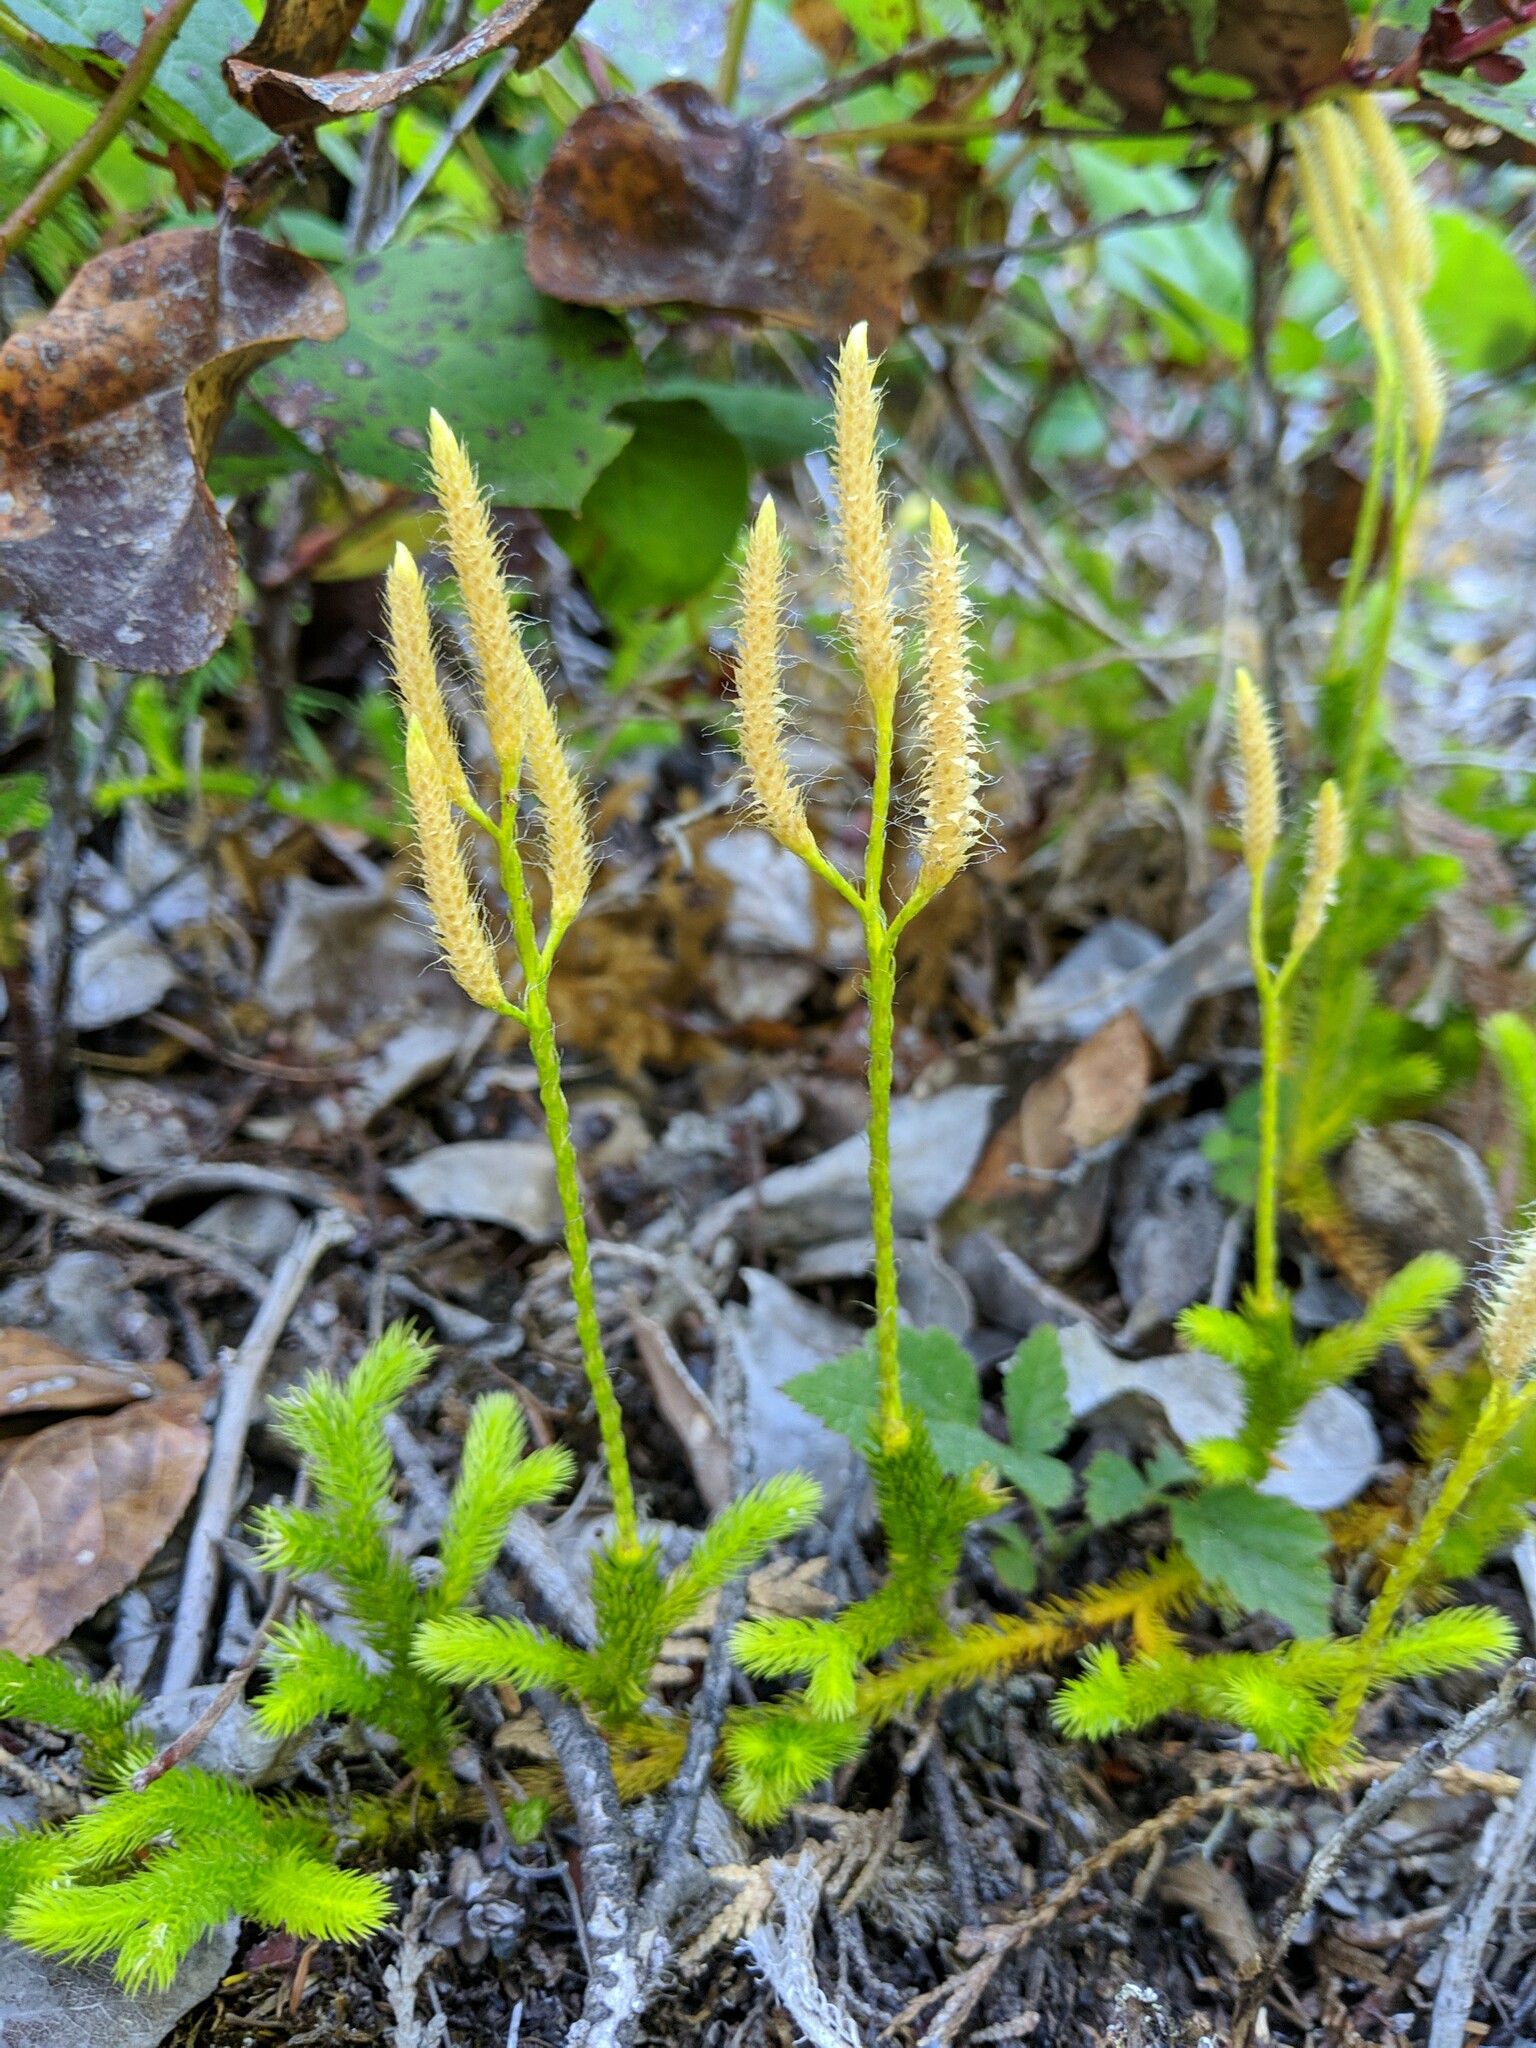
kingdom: Plantae
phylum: Tracheophyta
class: Lycopodiopsida
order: Lycopodiales
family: Lycopodiaceae
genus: Lycopodium
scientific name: Lycopodium clavatum
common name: Stag's-horn clubmoss
